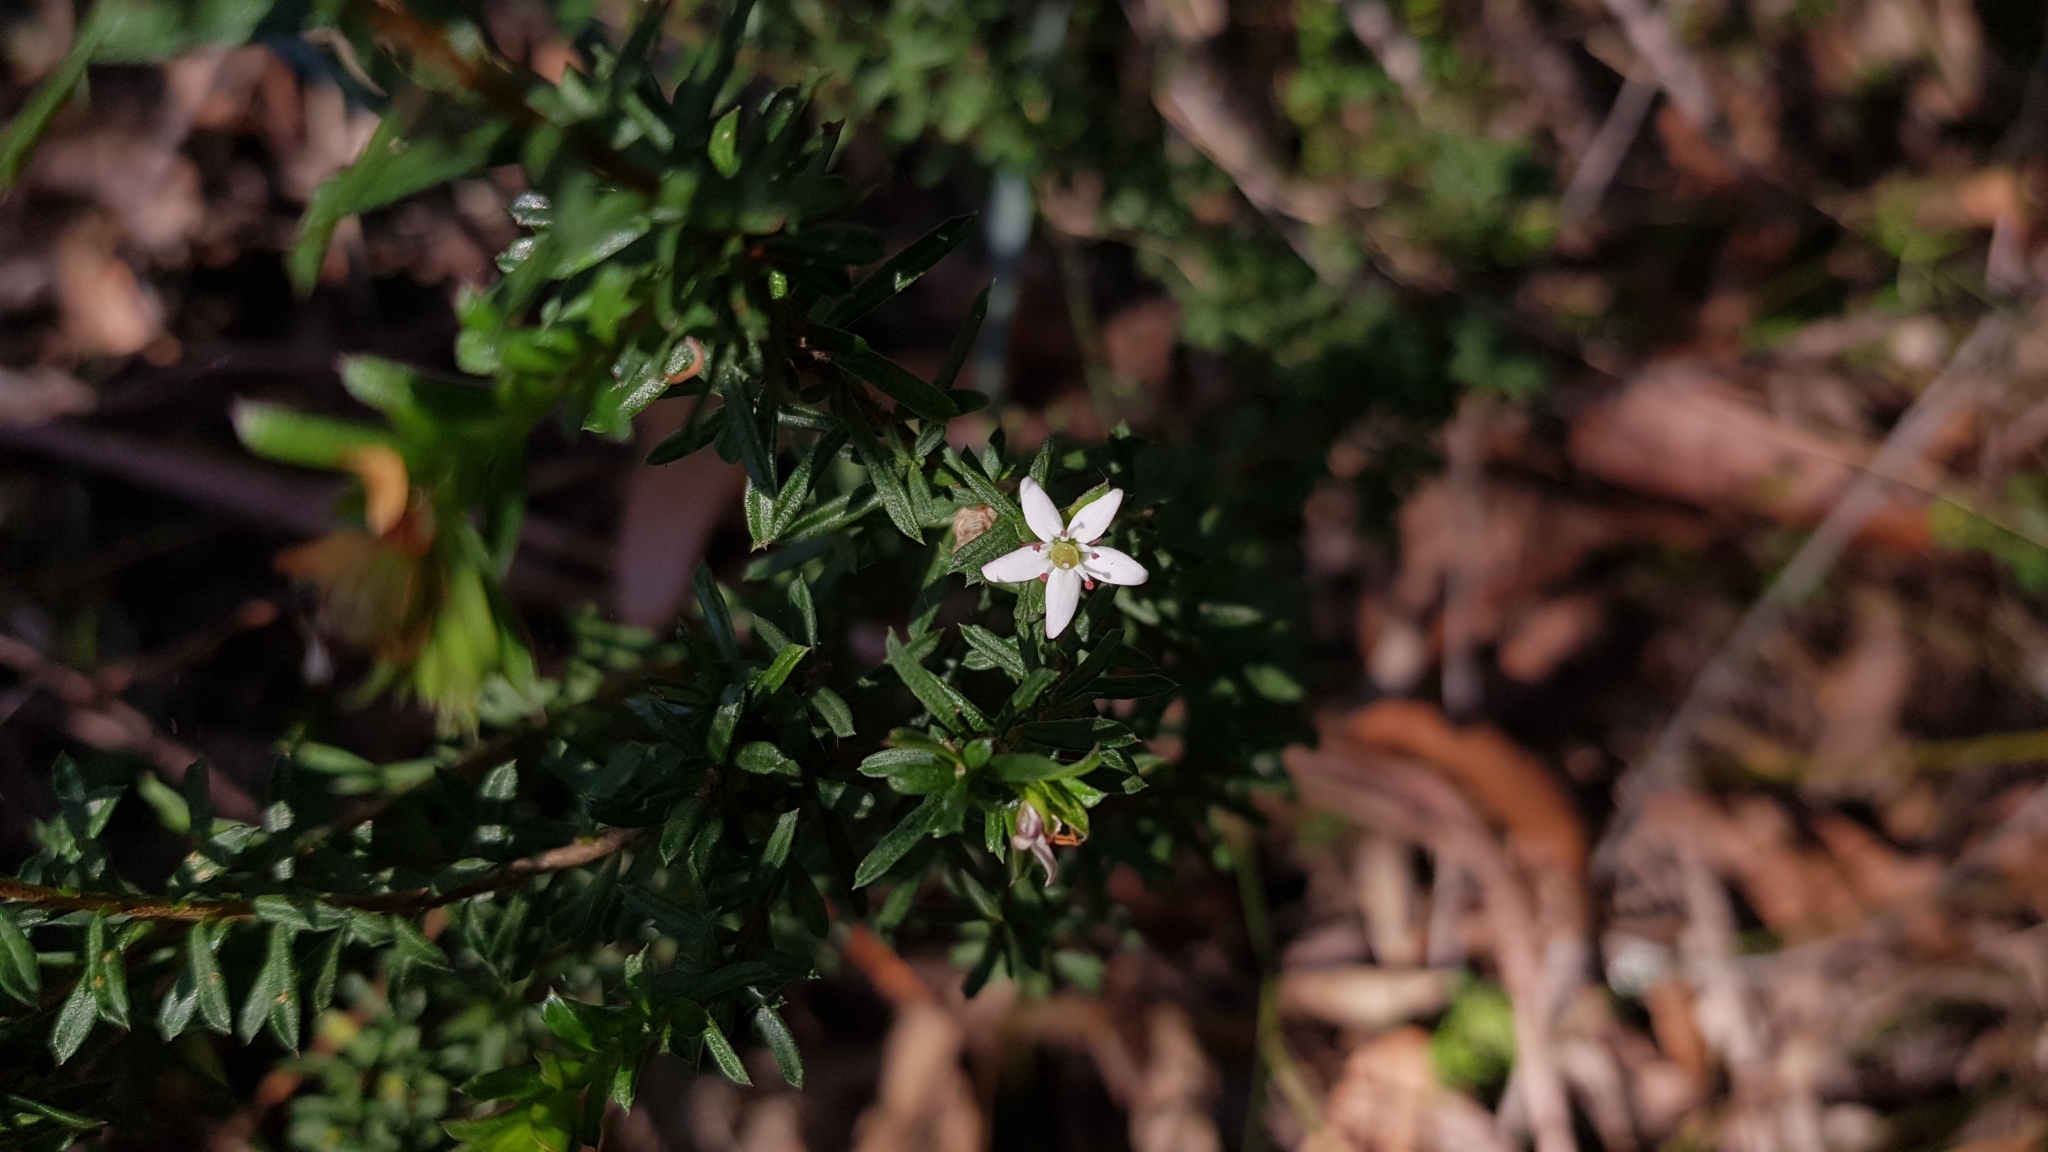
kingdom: Plantae
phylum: Tracheophyta
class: Magnoliopsida
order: Apiales
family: Pittosporaceae
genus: Rhytidosporum
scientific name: Rhytidosporum procumbens
